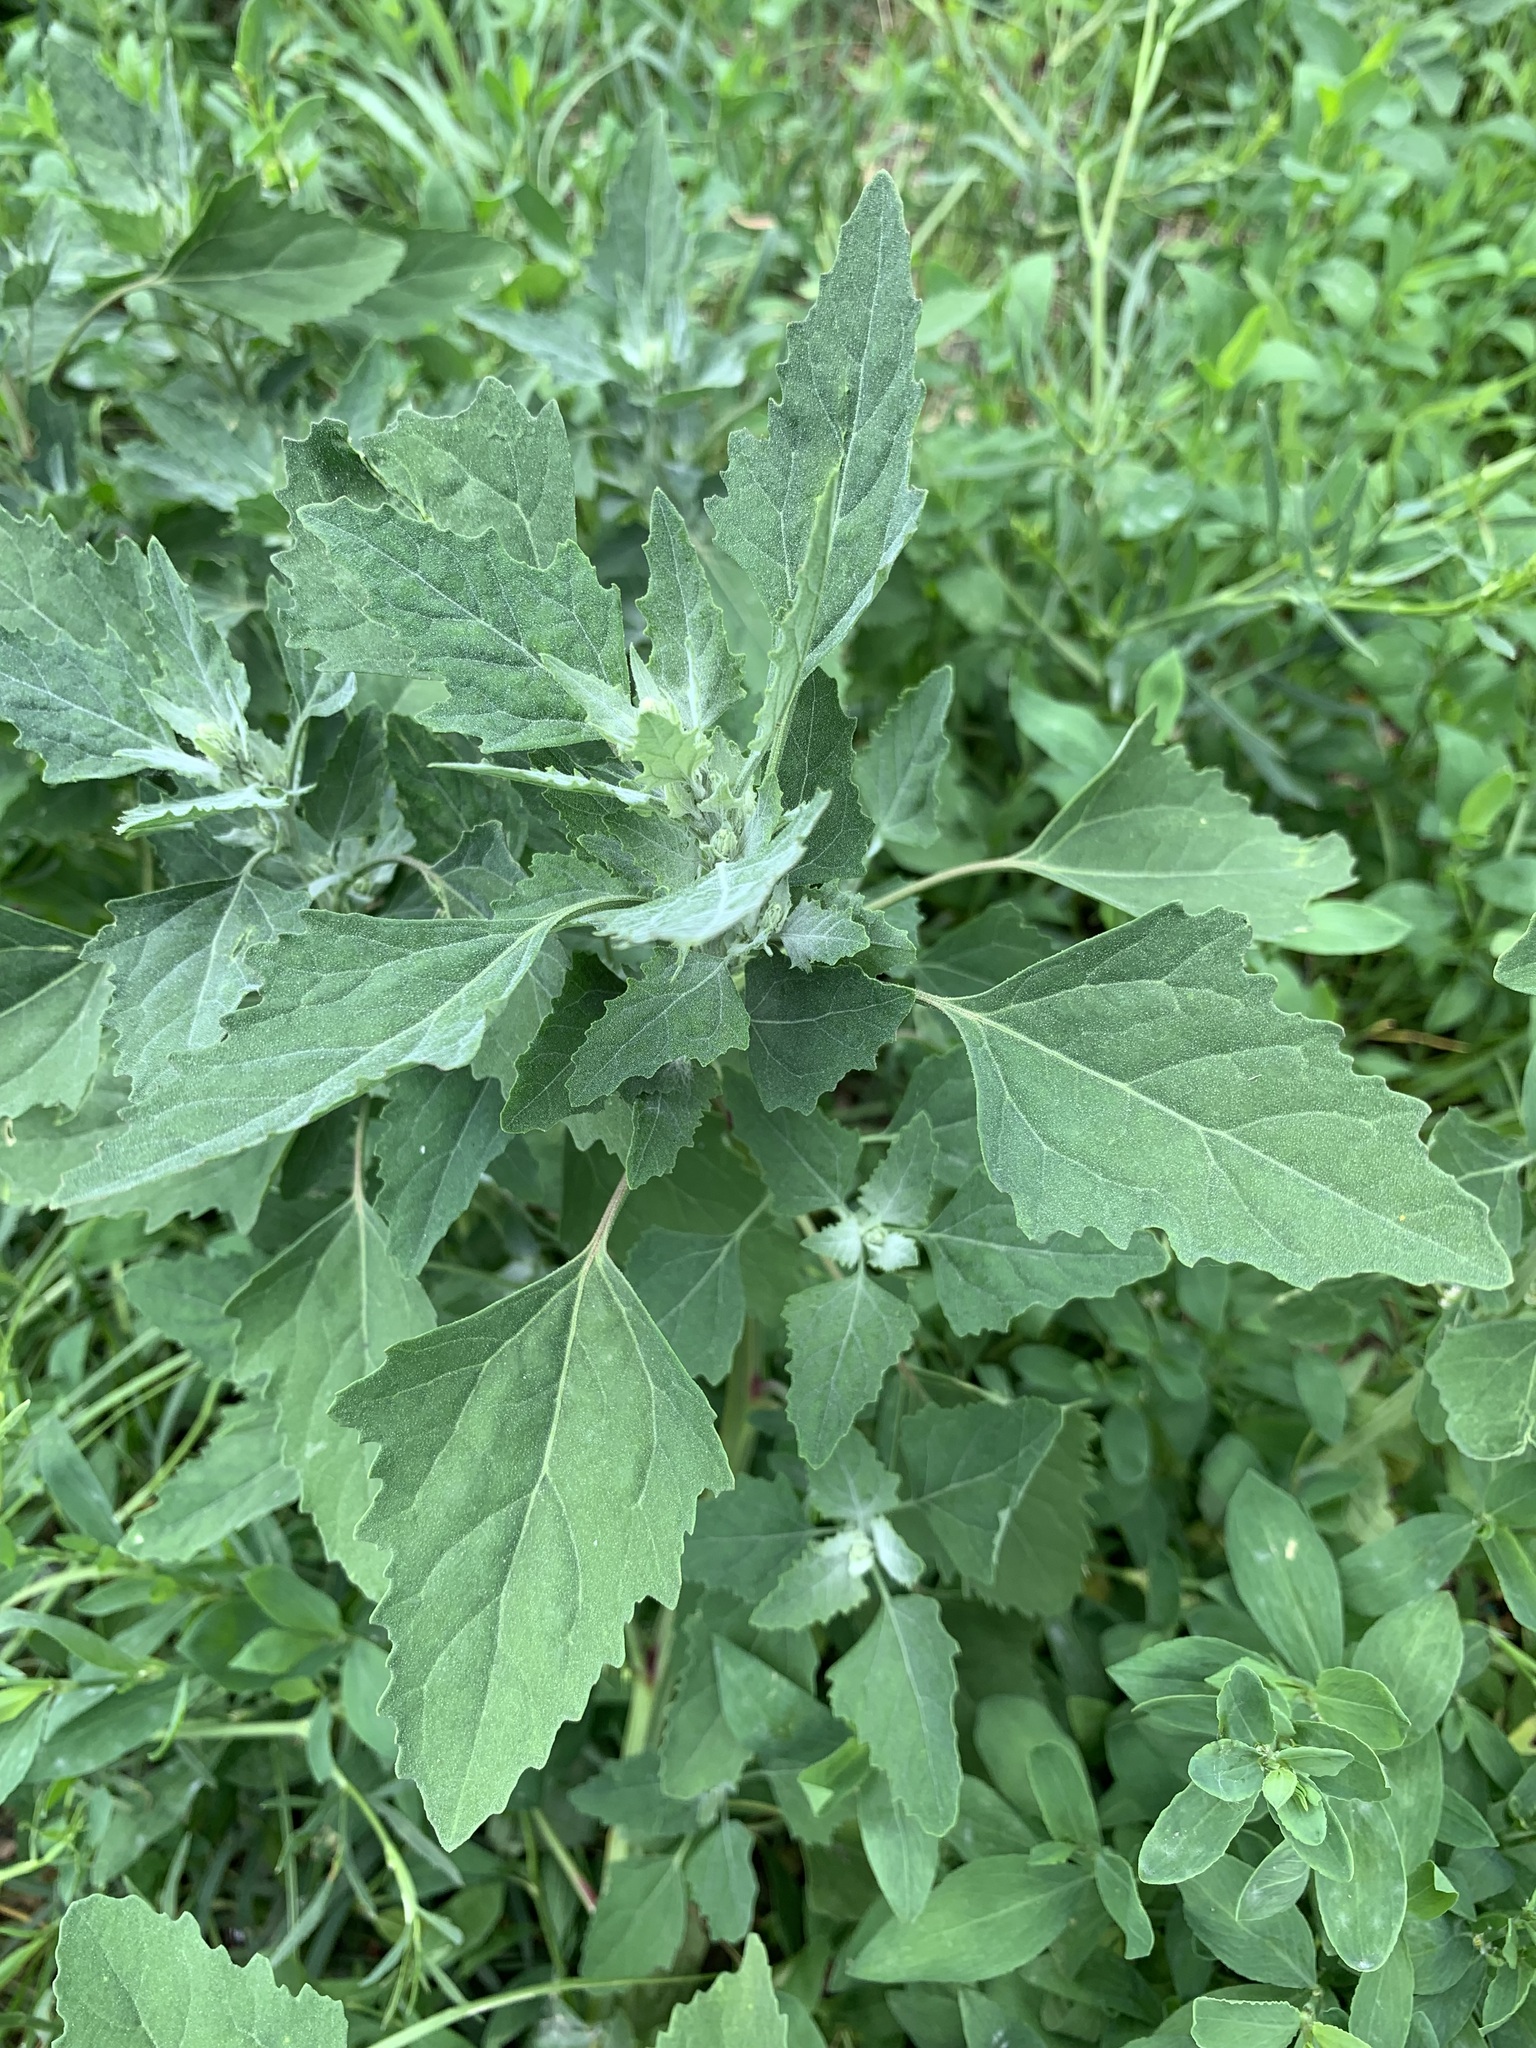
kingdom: Plantae
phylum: Tracheophyta
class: Magnoliopsida
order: Caryophyllales
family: Amaranthaceae
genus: Chenopodium
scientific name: Chenopodium album
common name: Fat-hen
